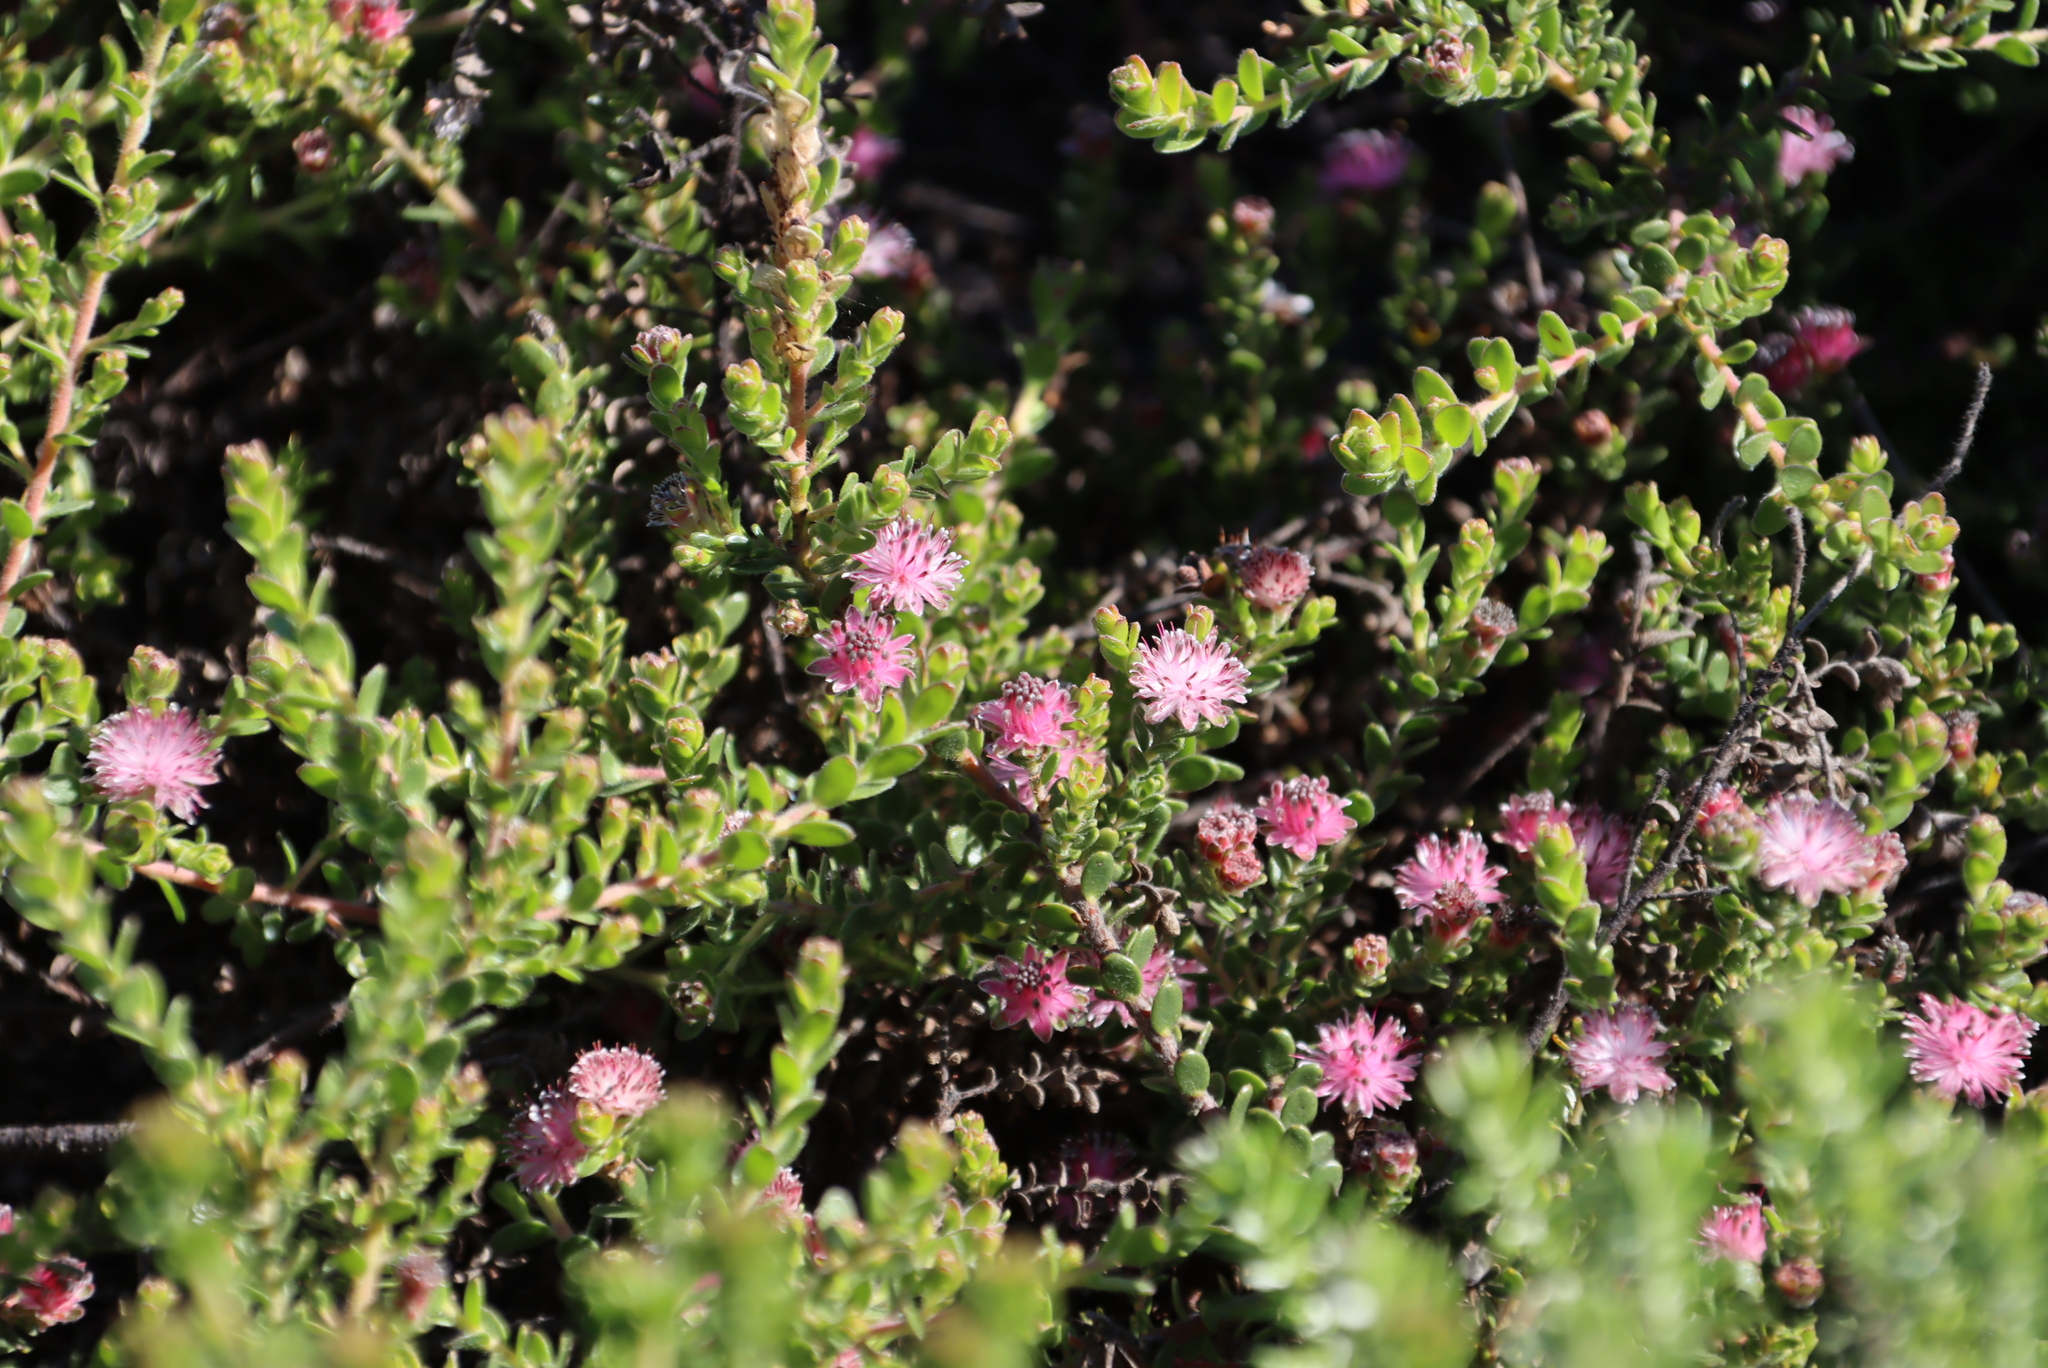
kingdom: Plantae
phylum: Tracheophyta
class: Magnoliopsida
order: Proteales
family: Proteaceae
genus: Diastella
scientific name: Diastella divaricata
